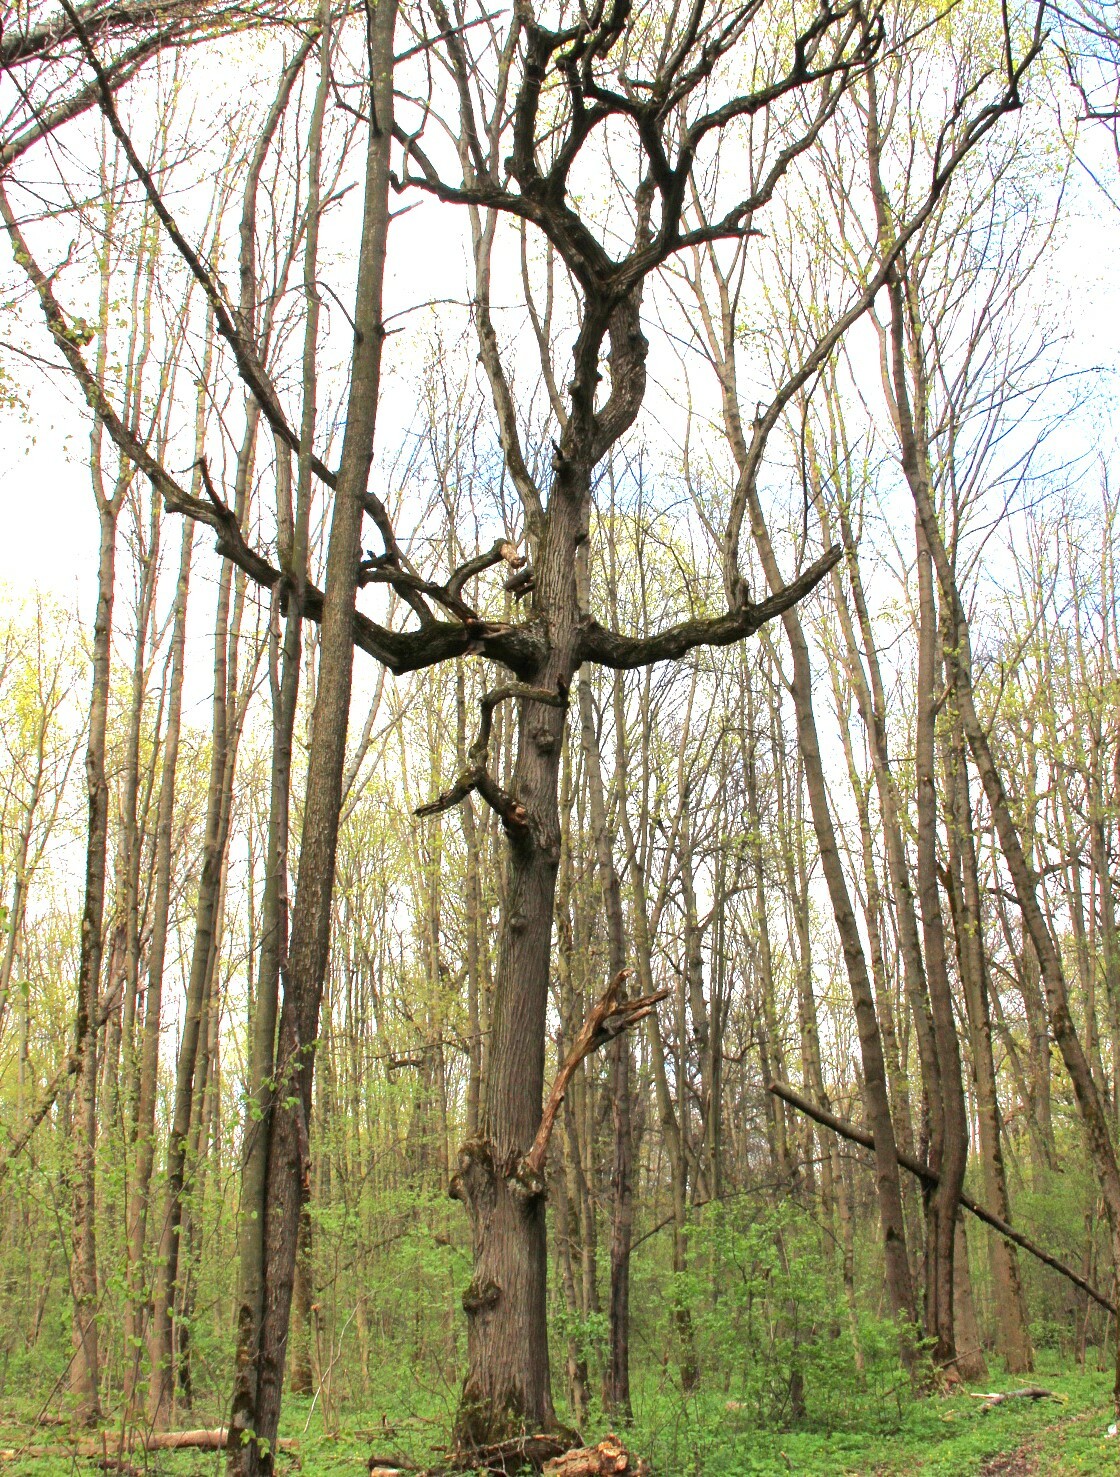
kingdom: Plantae
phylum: Tracheophyta
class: Magnoliopsida
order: Fagales
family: Fagaceae
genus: Quercus
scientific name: Quercus robur
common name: Pedunculate oak
